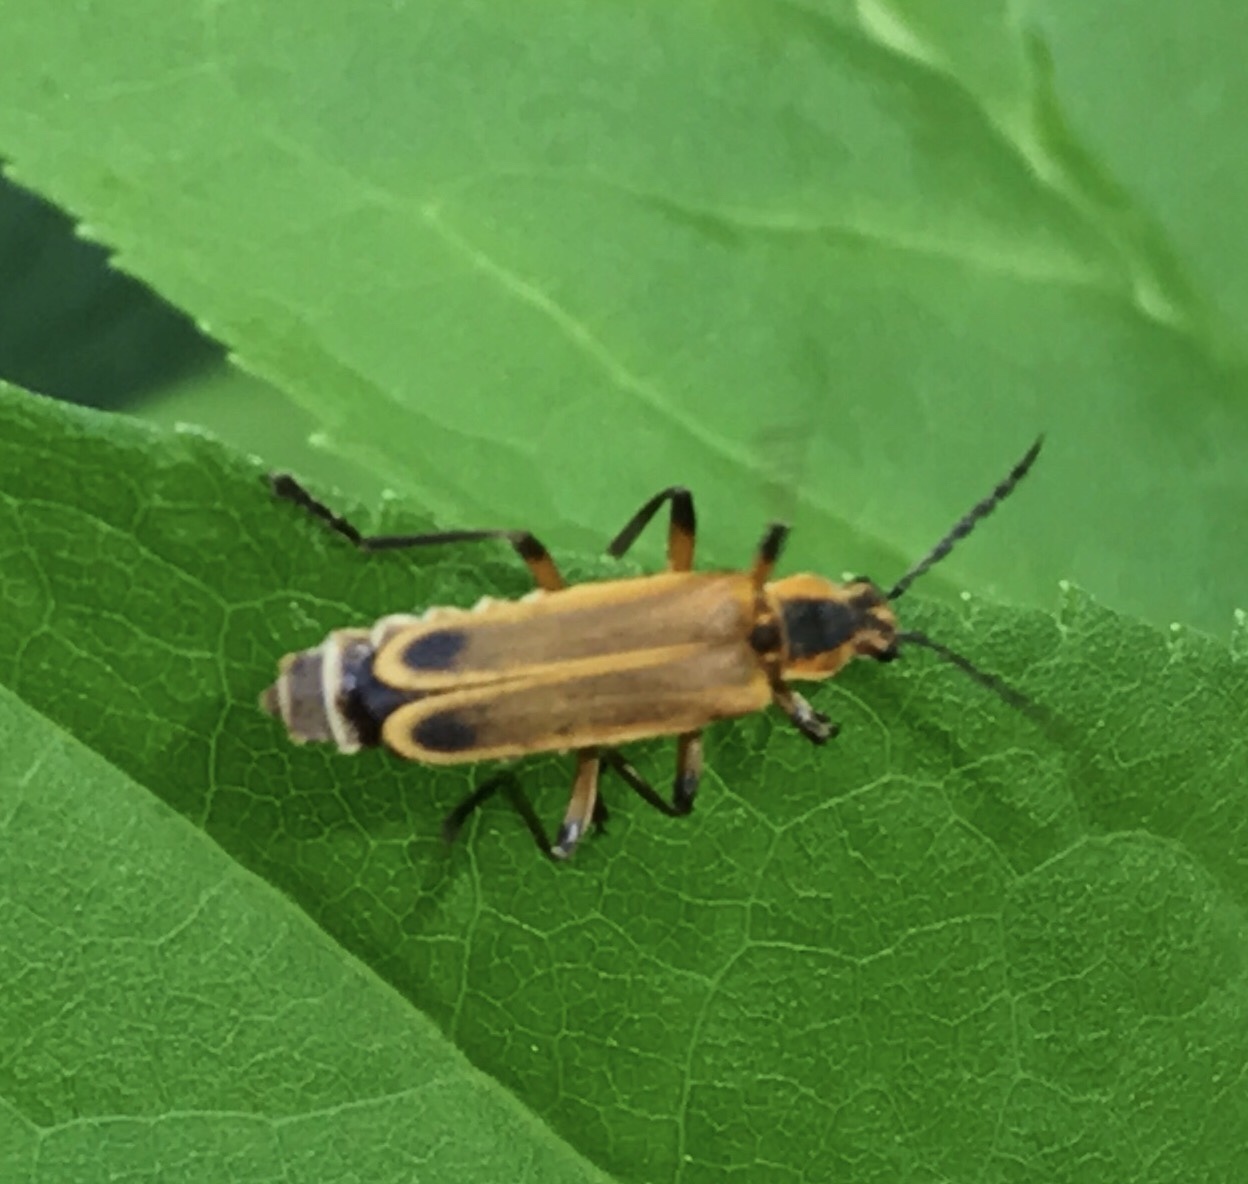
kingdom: Animalia
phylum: Arthropoda
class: Insecta
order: Coleoptera
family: Cantharidae
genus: Chauliognathus
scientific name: Chauliognathus marginatus
